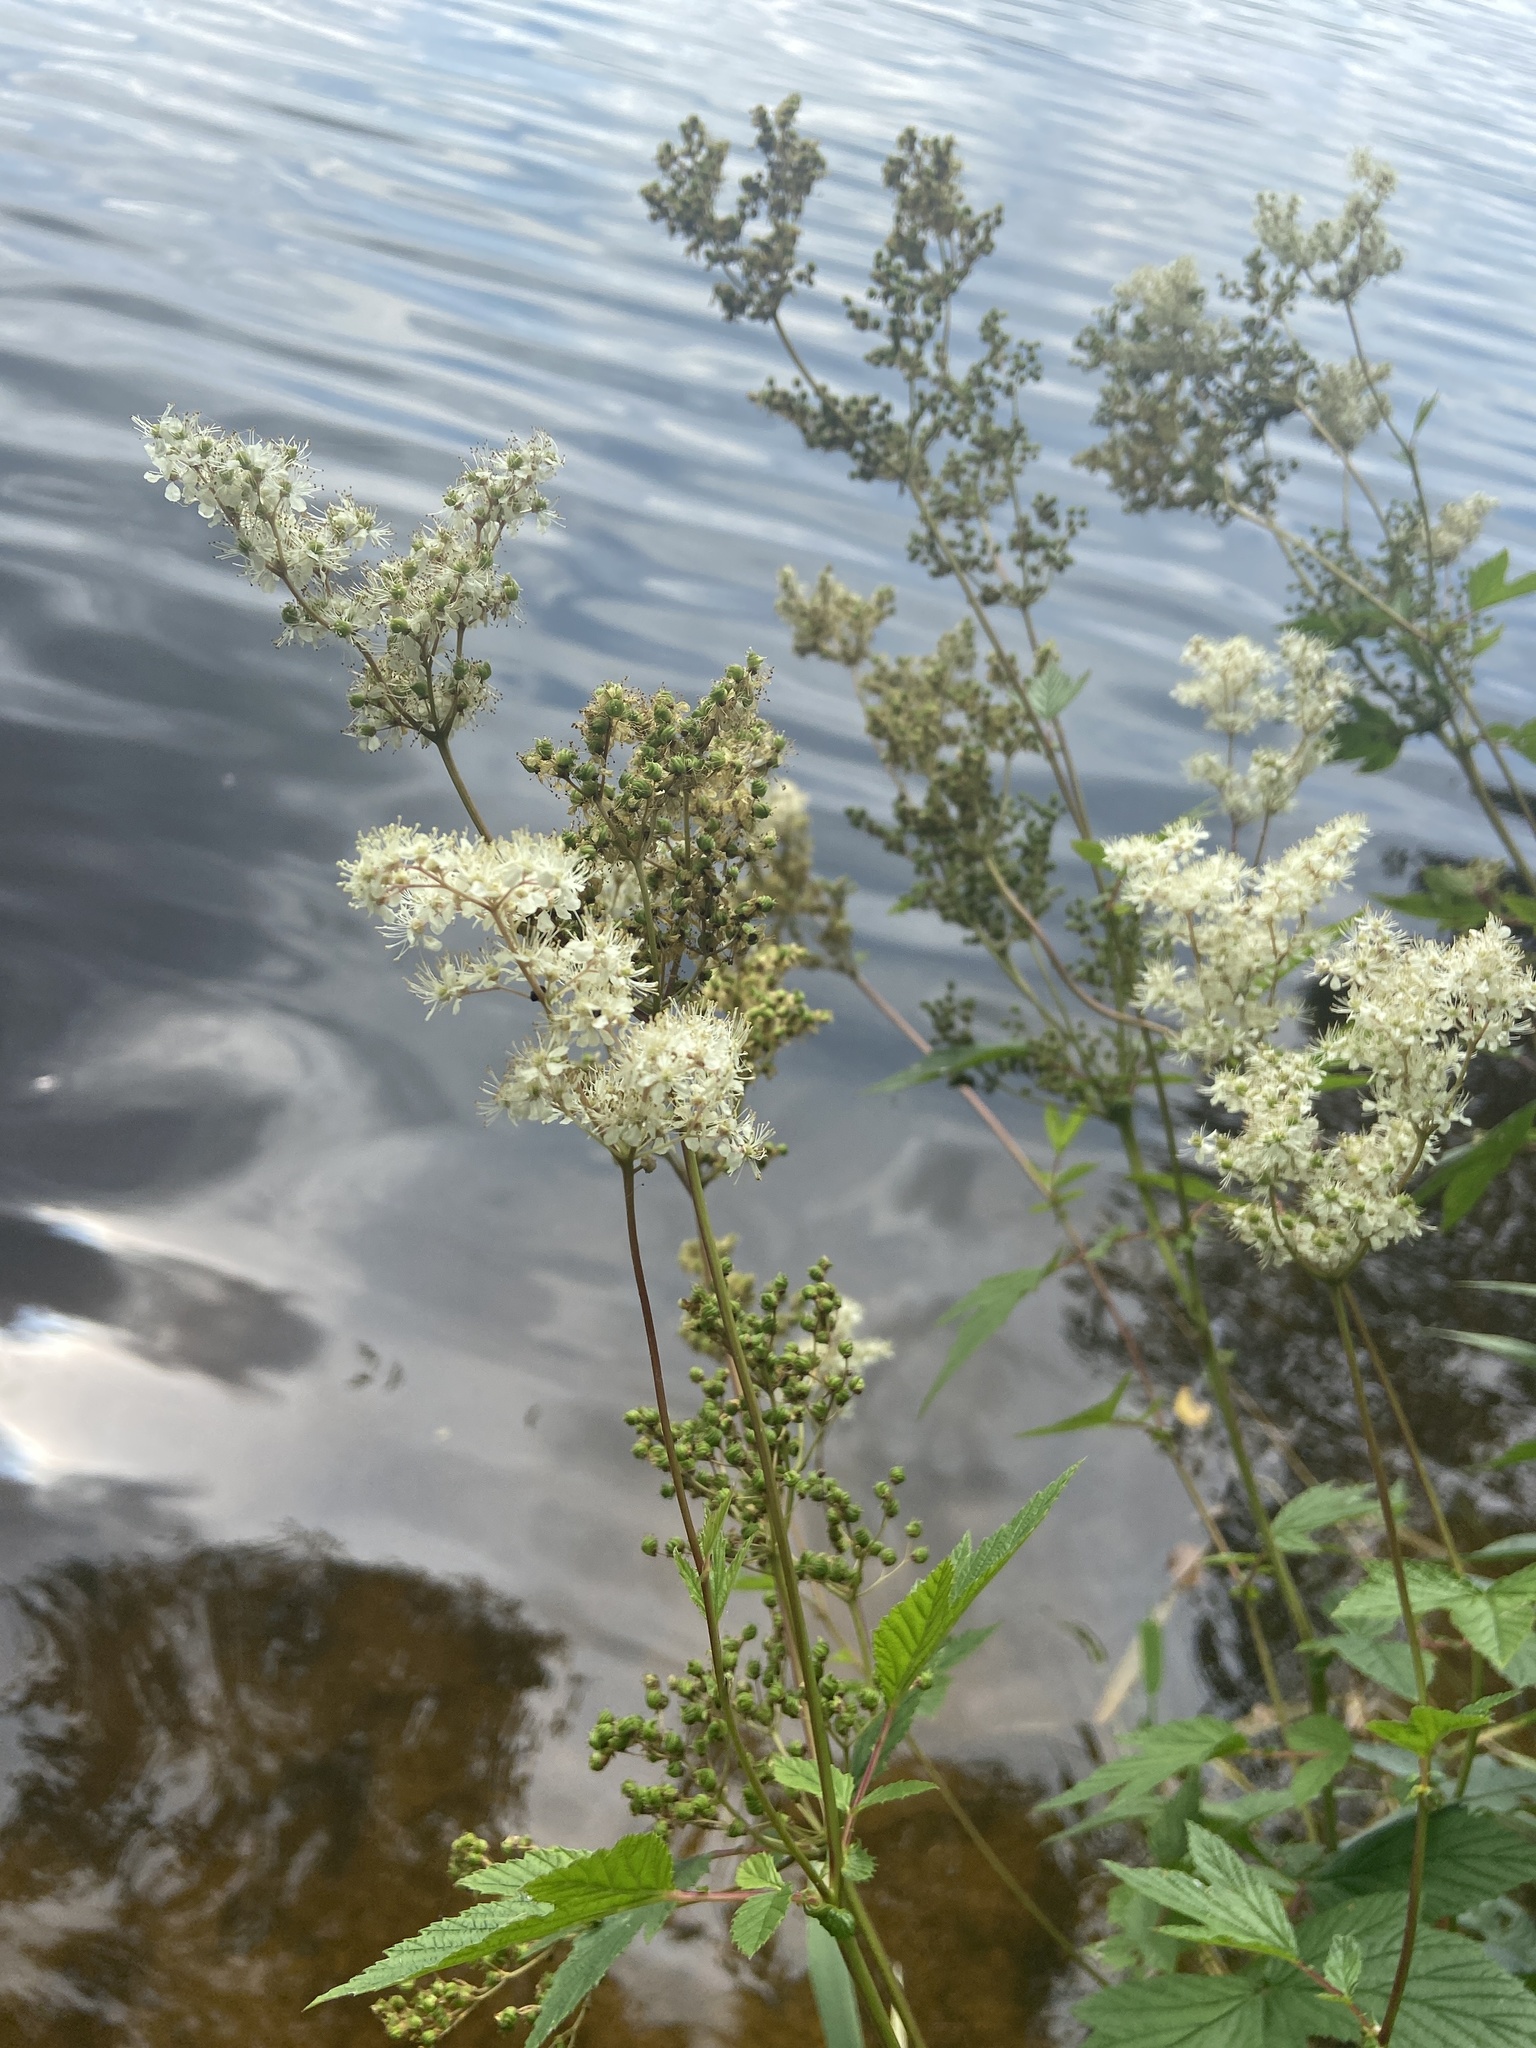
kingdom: Plantae
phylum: Tracheophyta
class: Magnoliopsida
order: Rosales
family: Rosaceae
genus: Filipendula
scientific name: Filipendula ulmaria
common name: Meadowsweet
